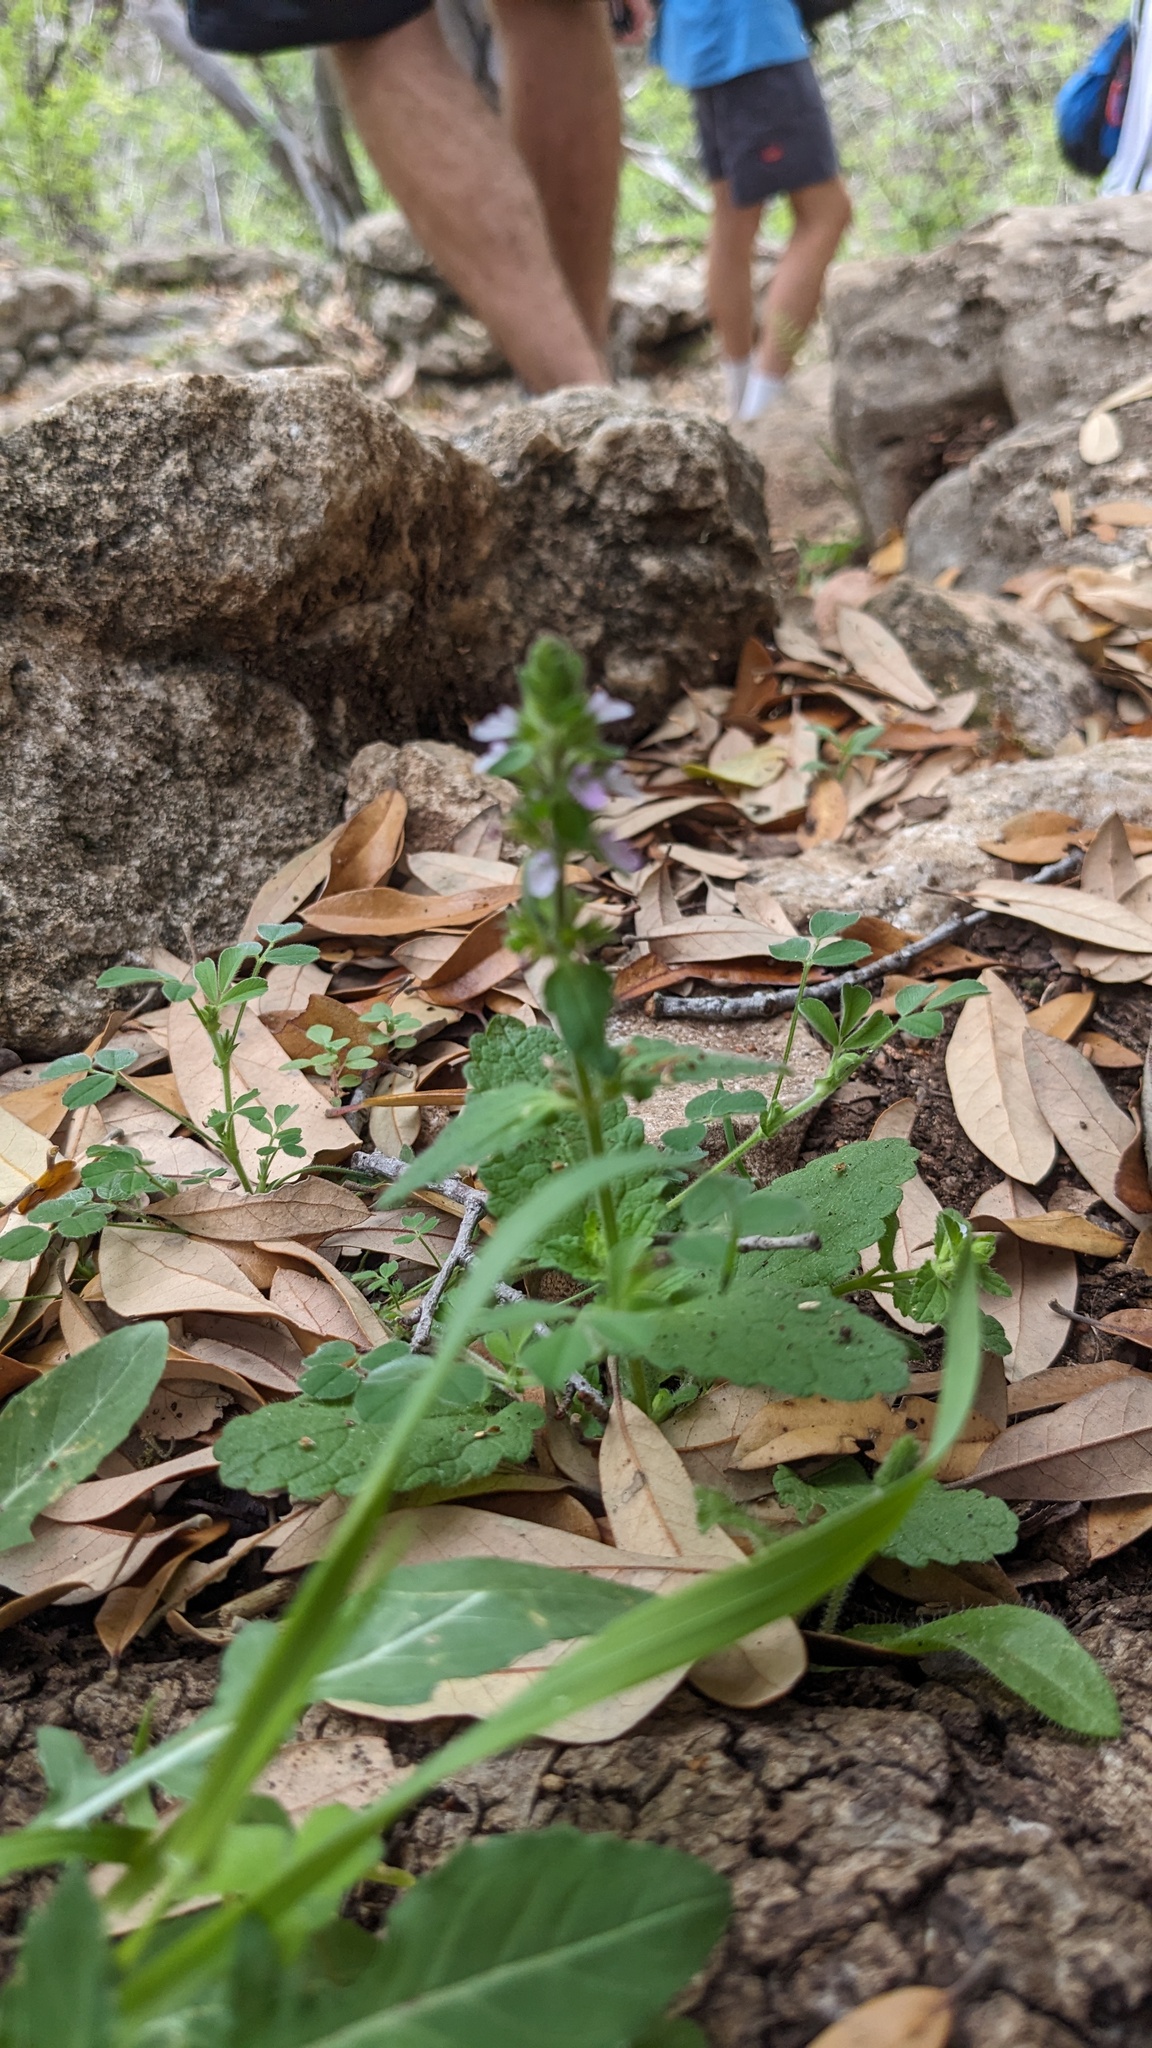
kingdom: Plantae
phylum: Tracheophyta
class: Magnoliopsida
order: Lamiales
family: Lamiaceae
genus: Stachys
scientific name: Stachys
